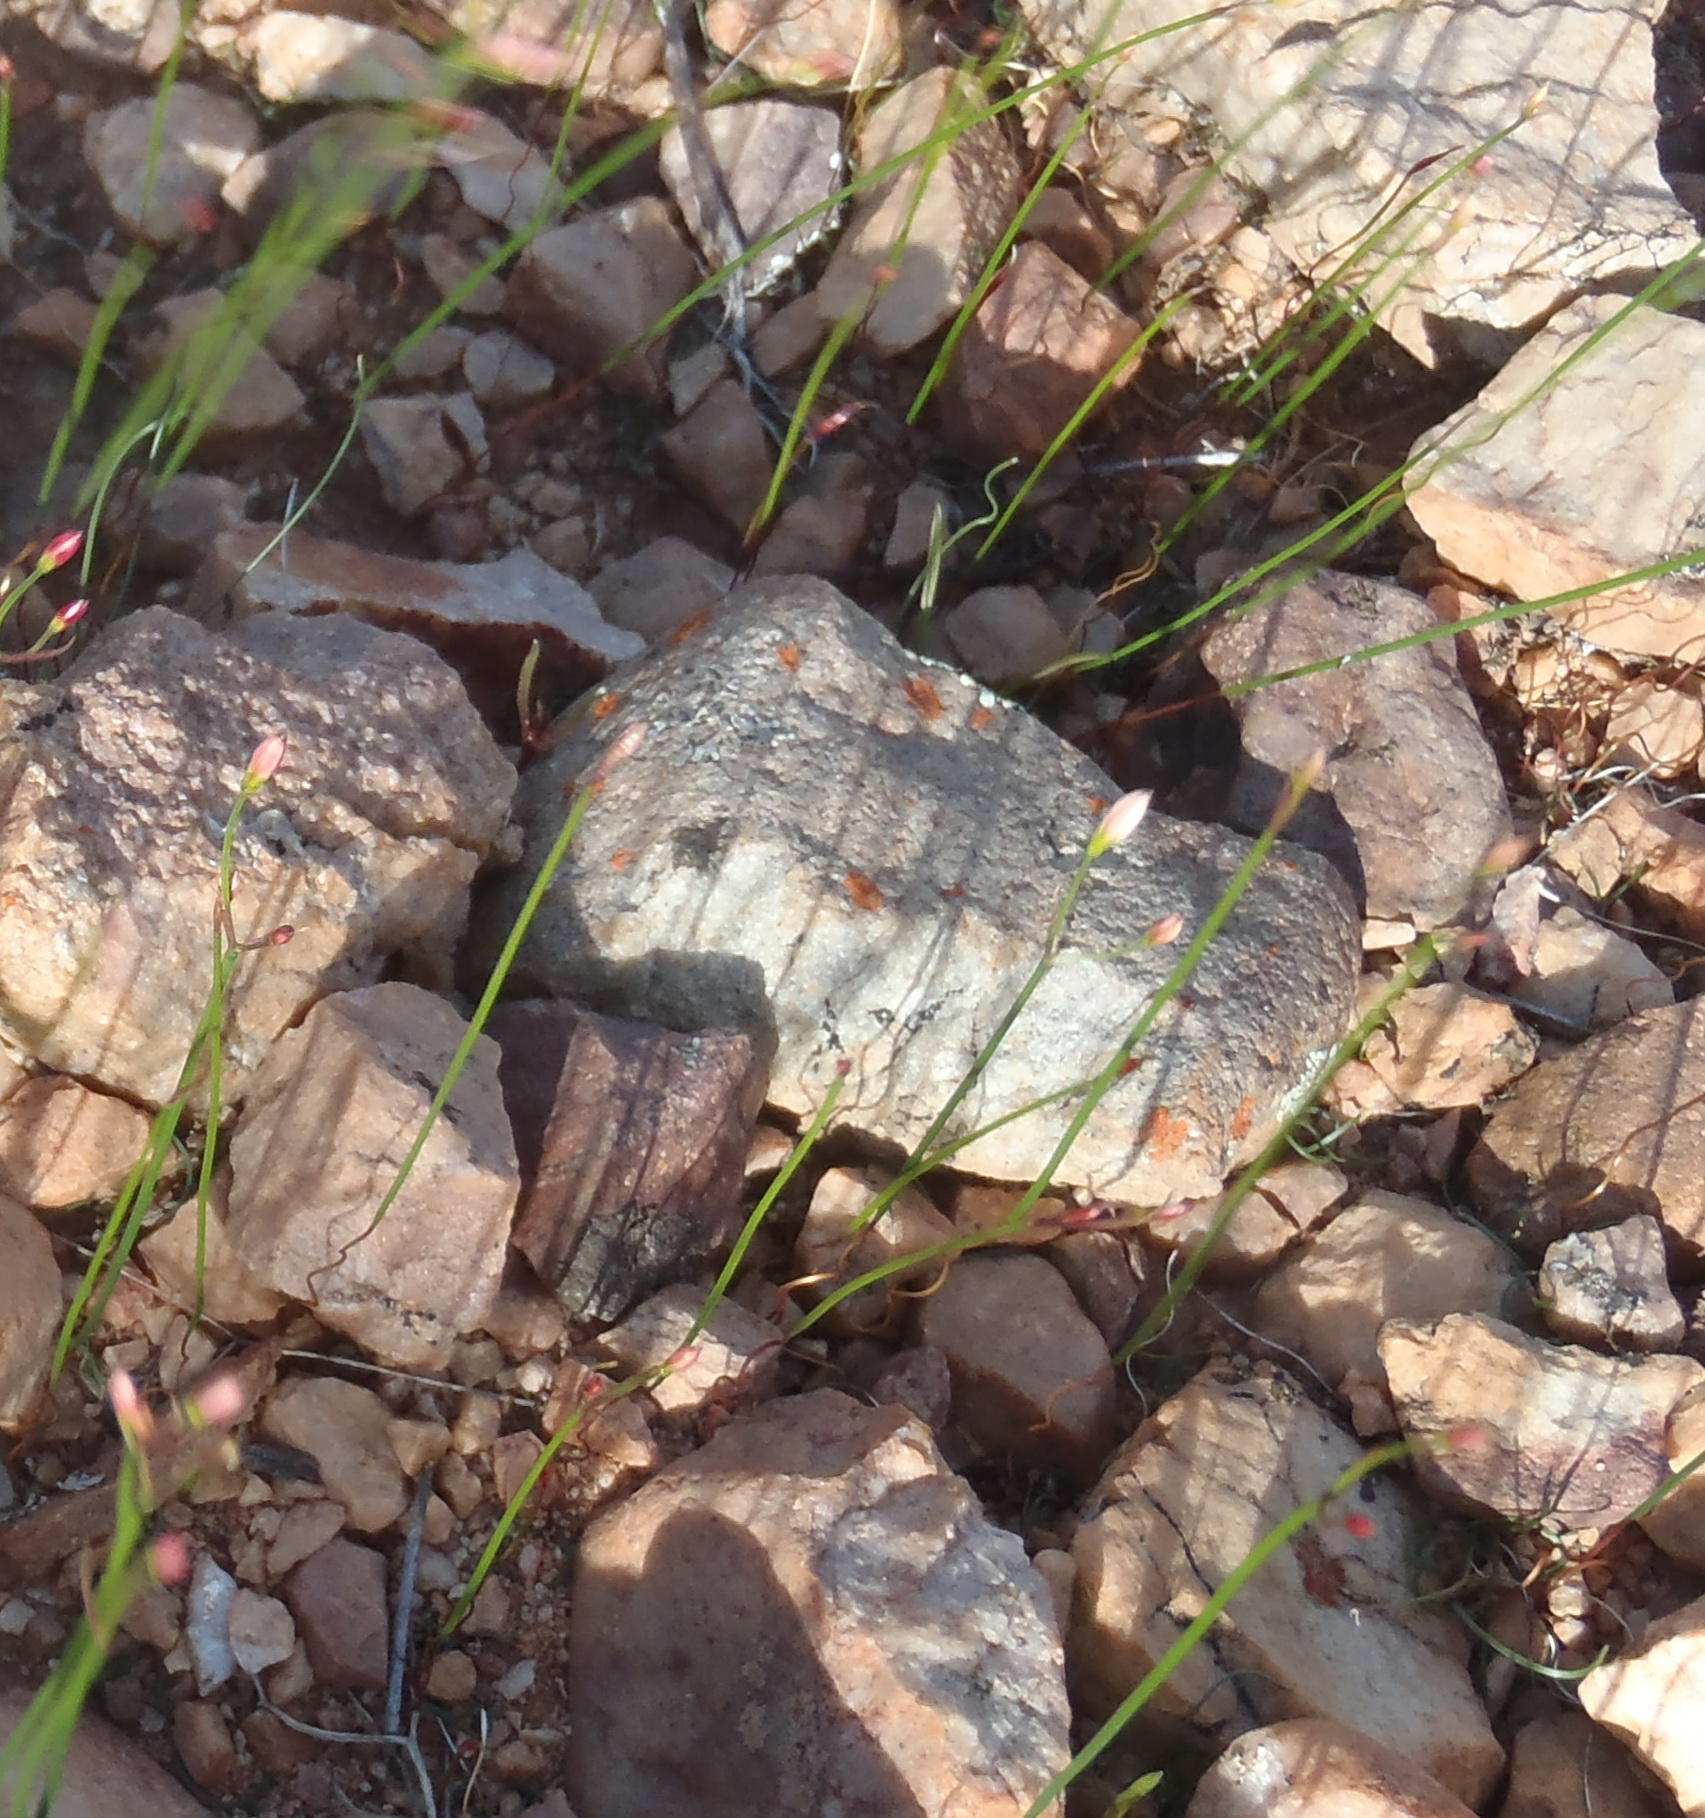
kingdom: Plantae
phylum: Tracheophyta
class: Liliopsida
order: Asparagales
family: Amaryllidaceae
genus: Strumaria
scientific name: Strumaria spiralis
